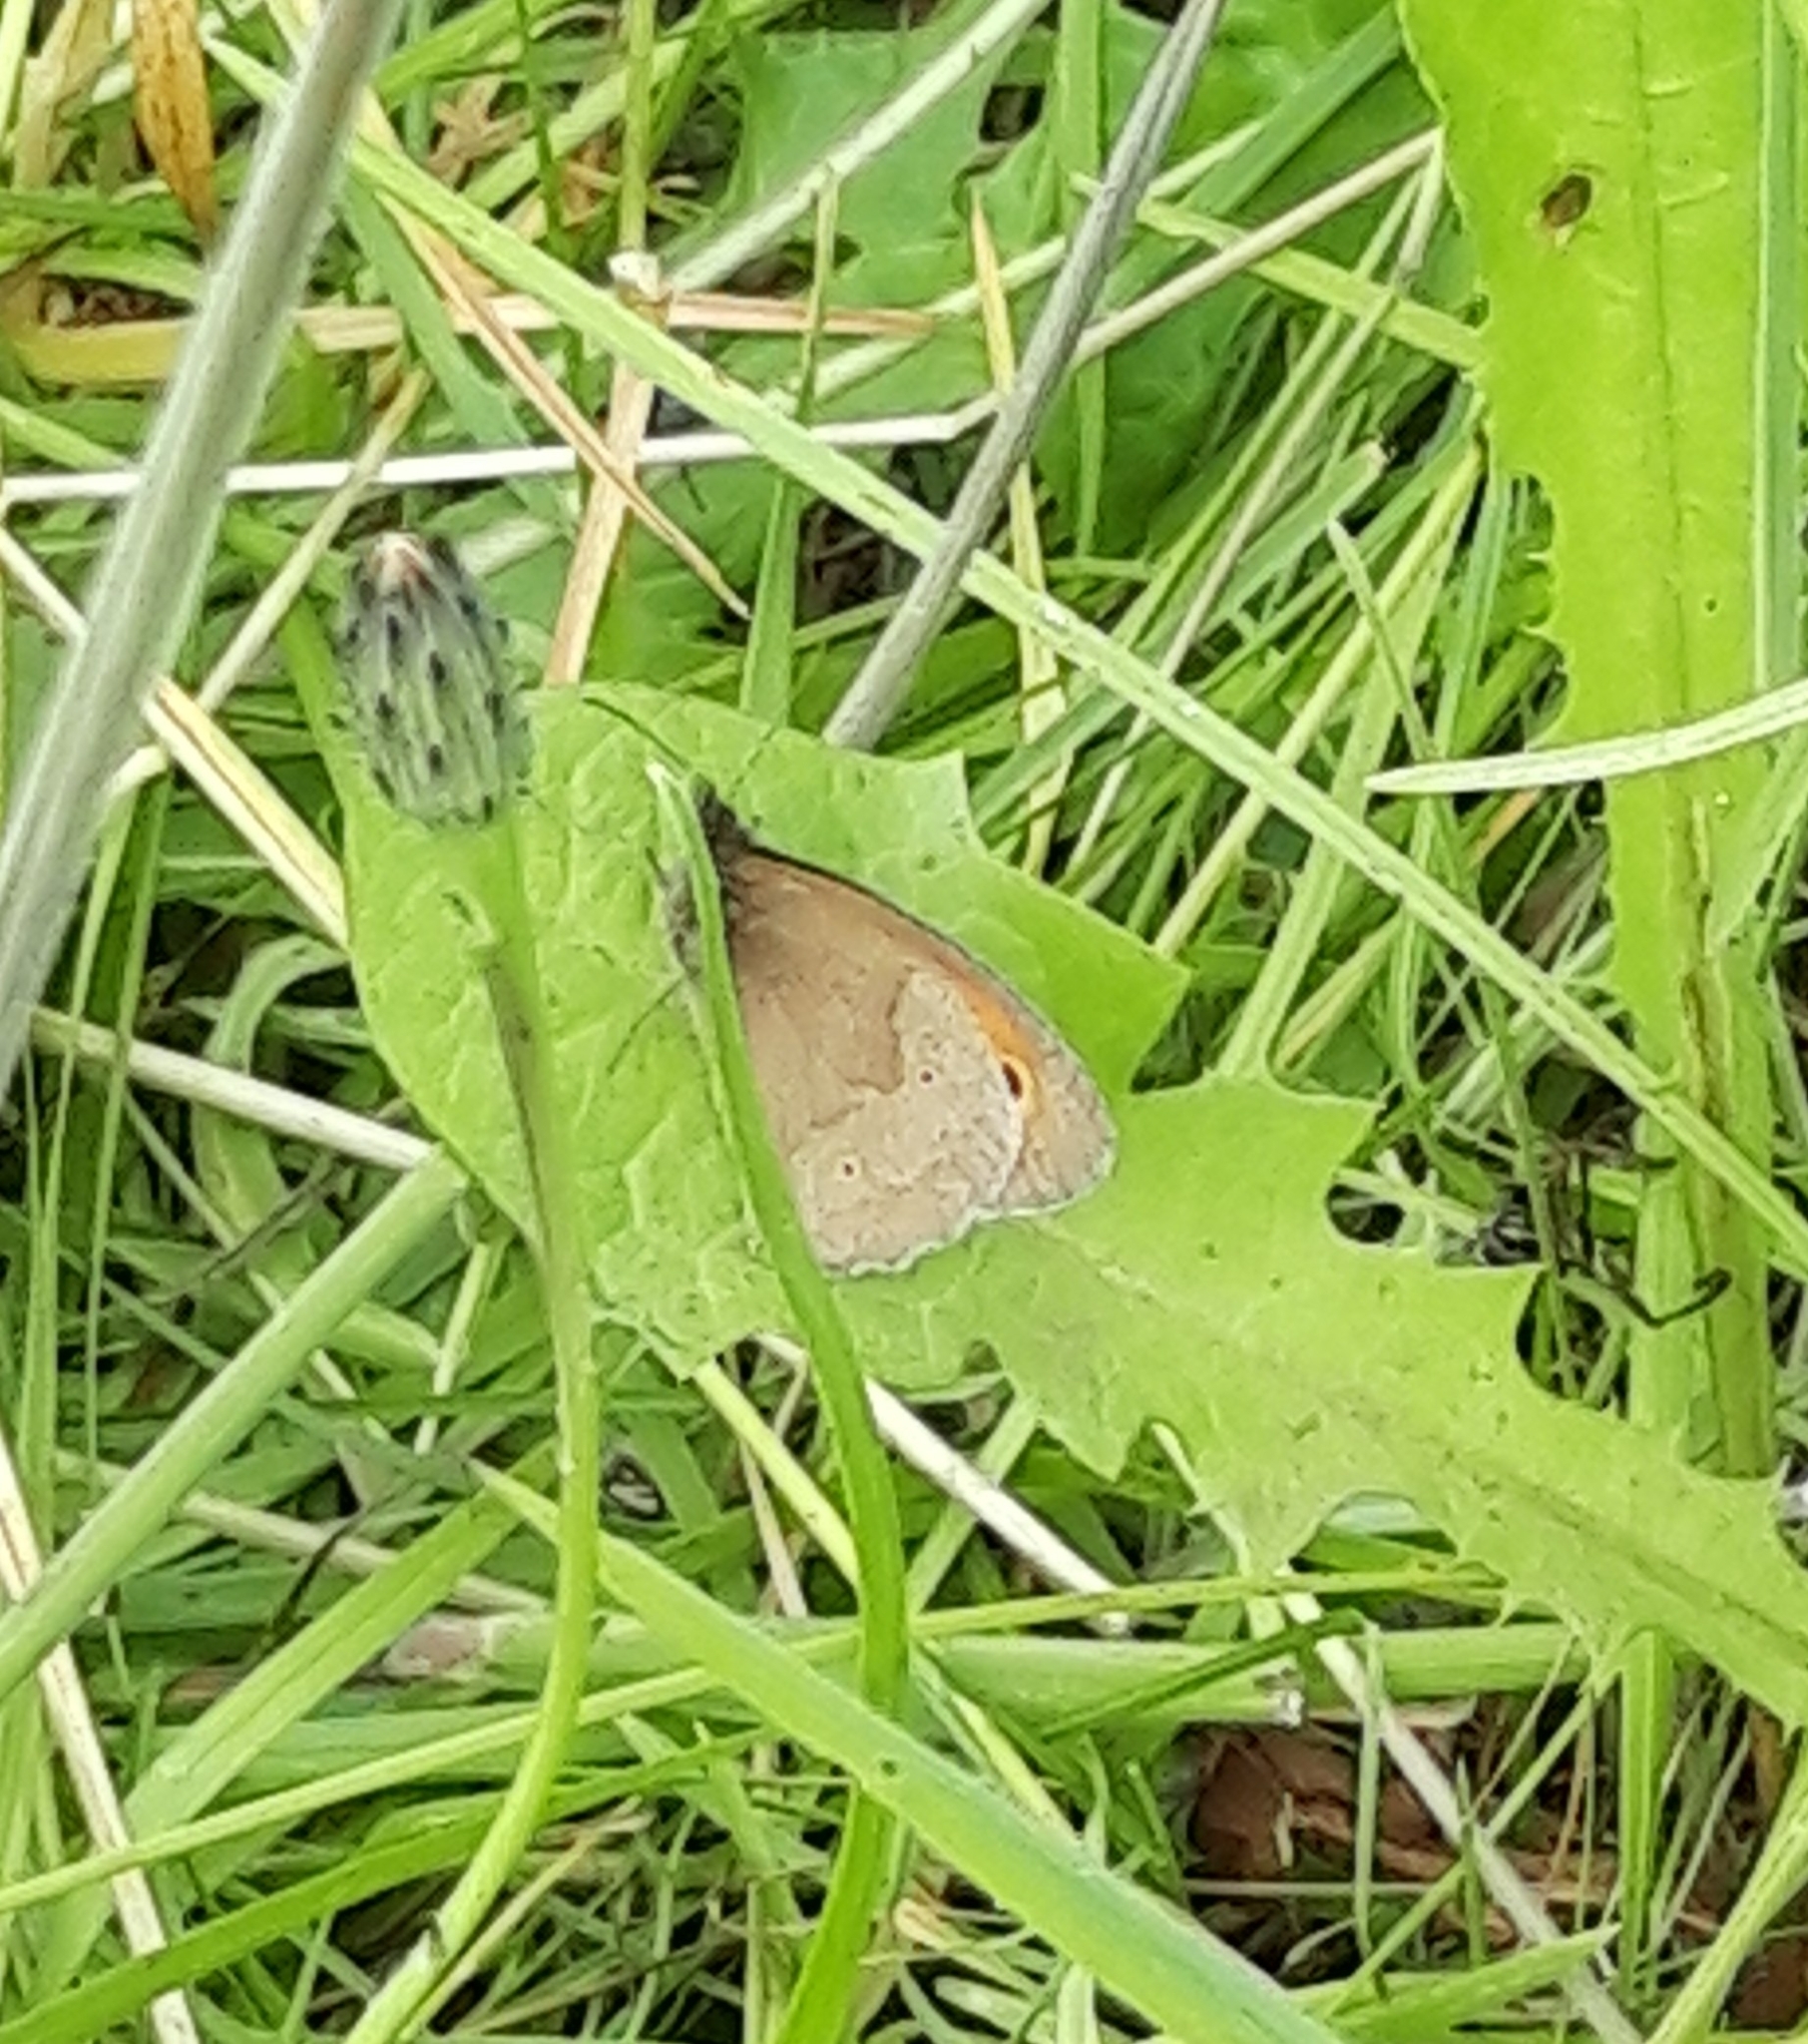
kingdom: Animalia
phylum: Arthropoda
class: Insecta
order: Lepidoptera
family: Nymphalidae
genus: Maniola
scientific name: Maniola jurtina
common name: Meadow brown
